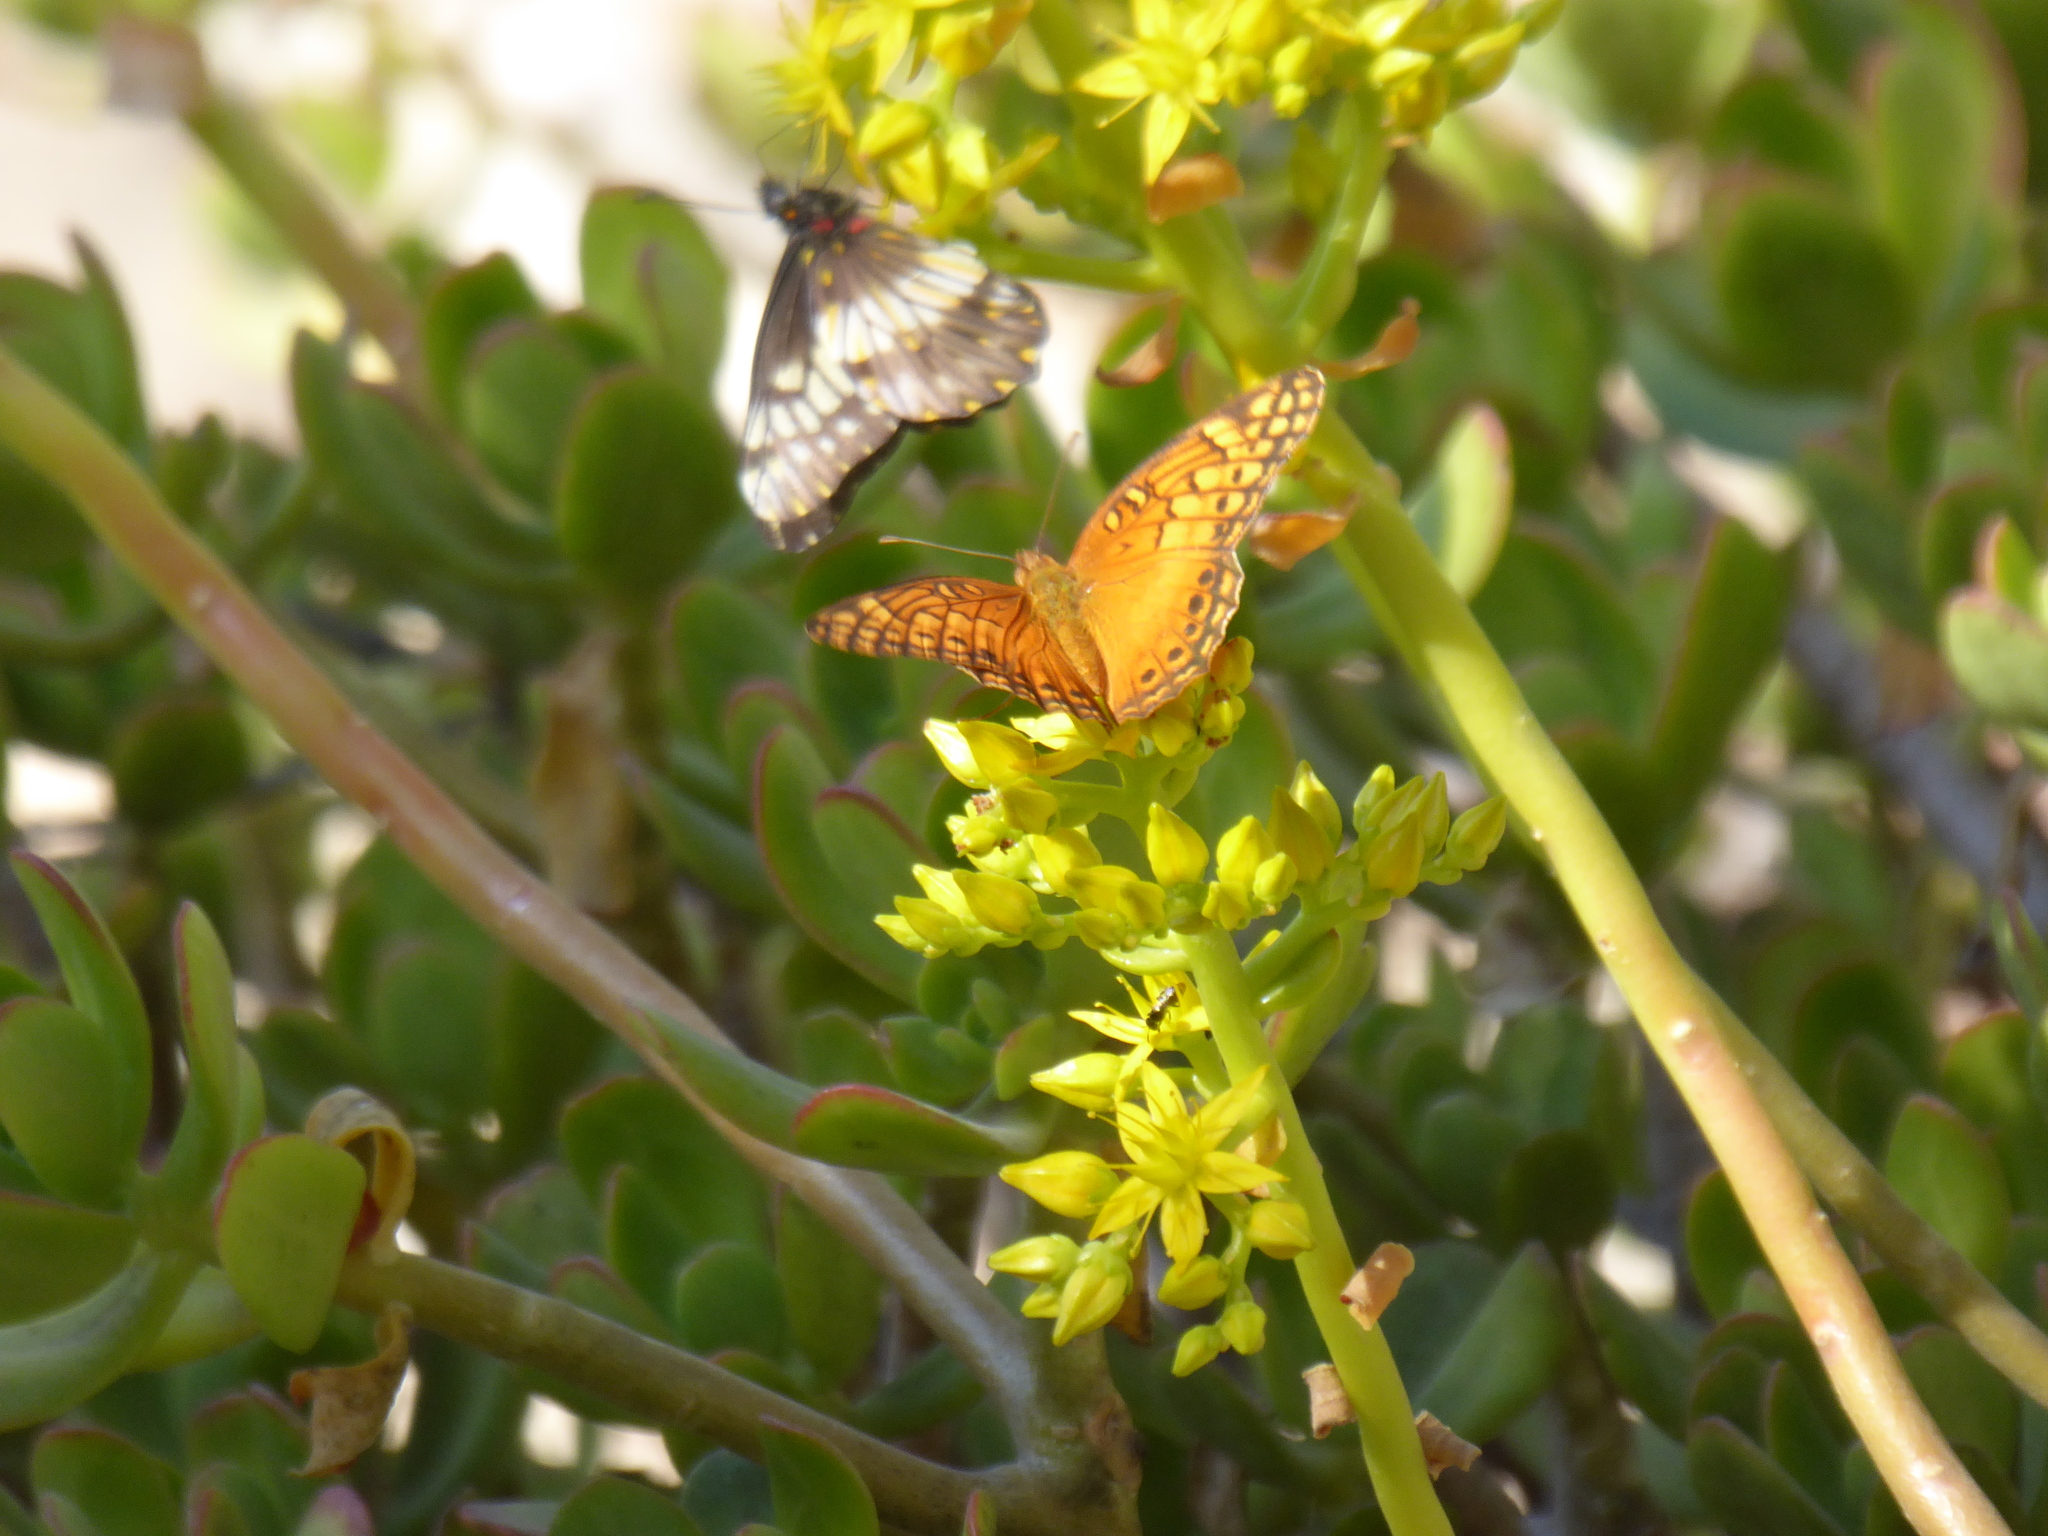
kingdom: Animalia
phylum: Arthropoda
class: Insecta
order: Lepidoptera
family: Pieridae
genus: Archonias
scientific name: Archonias nimbice
